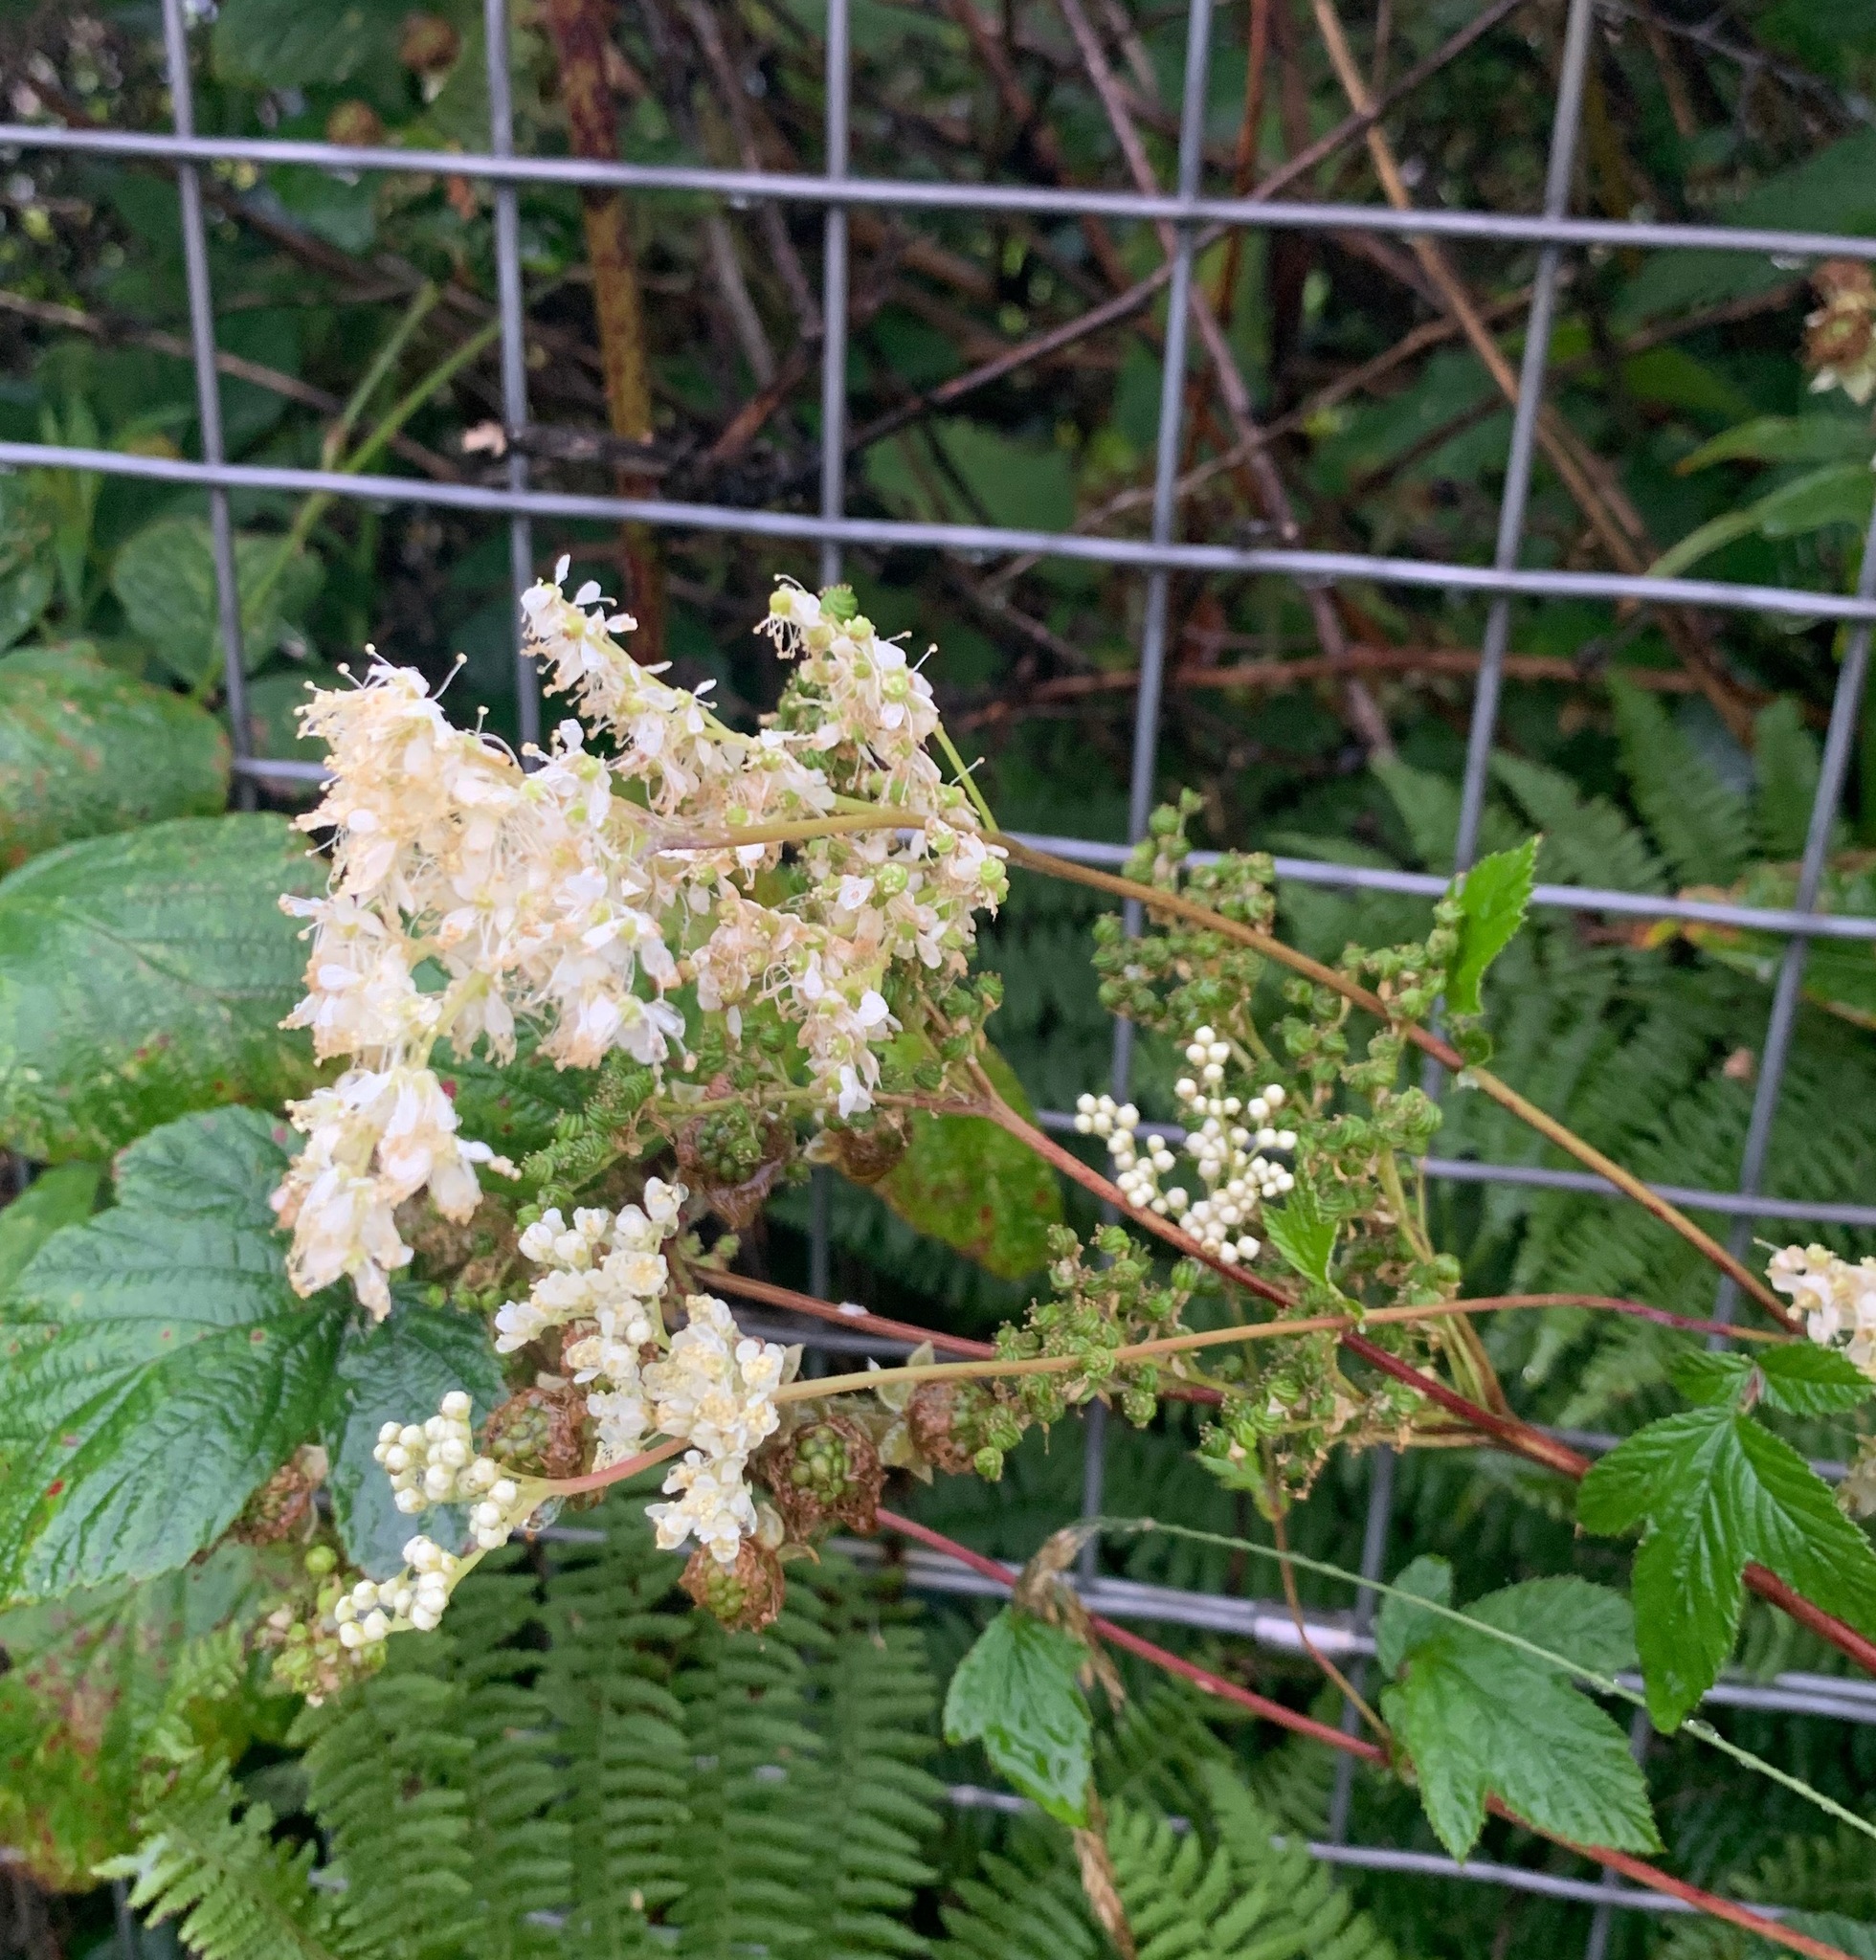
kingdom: Plantae
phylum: Tracheophyta
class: Magnoliopsida
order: Rosales
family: Rosaceae
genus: Filipendula
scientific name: Filipendula ulmaria
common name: Meadowsweet
